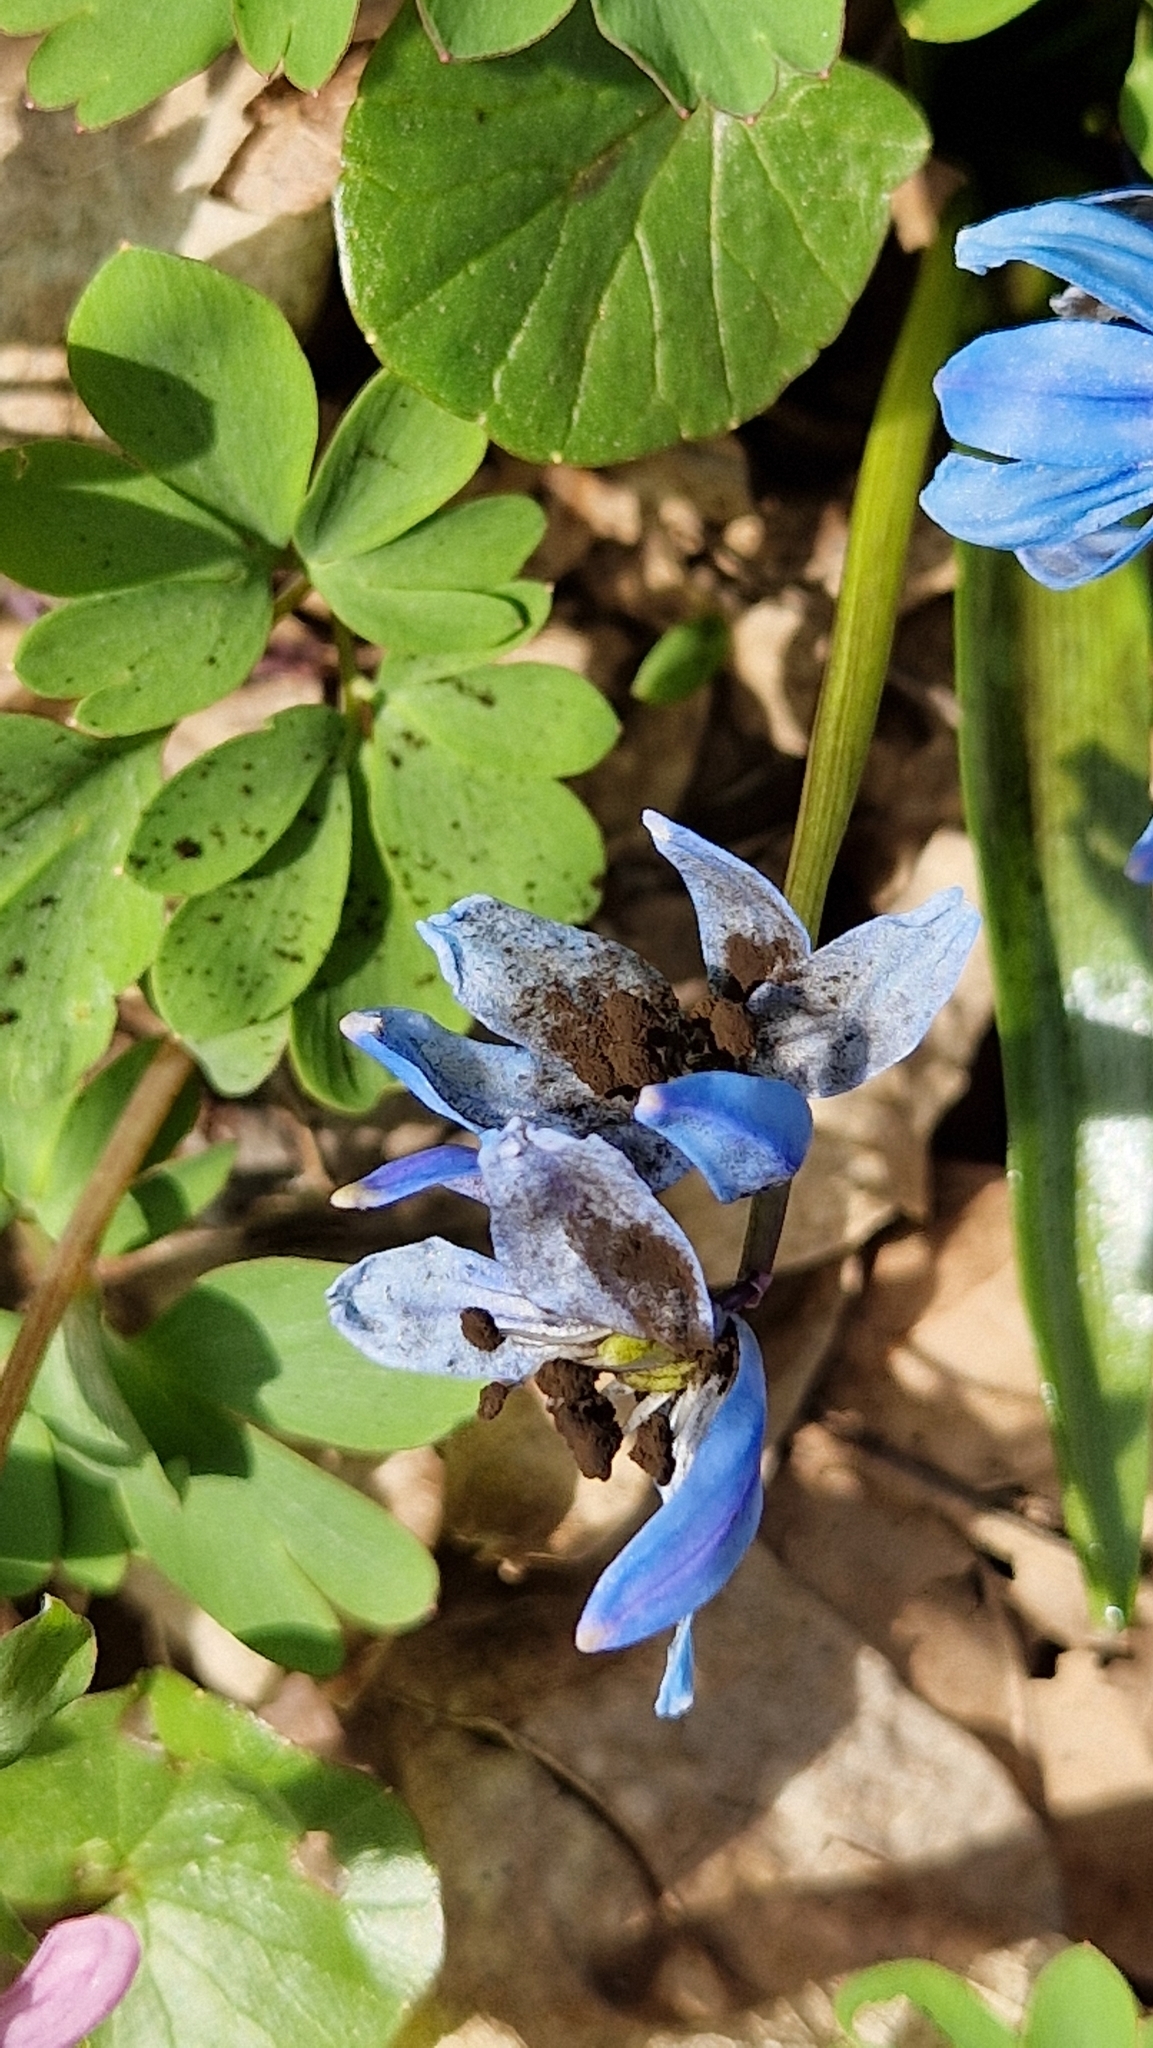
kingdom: Plantae
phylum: Tracheophyta
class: Liliopsida
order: Asparagales
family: Asparagaceae
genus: Scilla
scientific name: Scilla siberica
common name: Siberian squill
